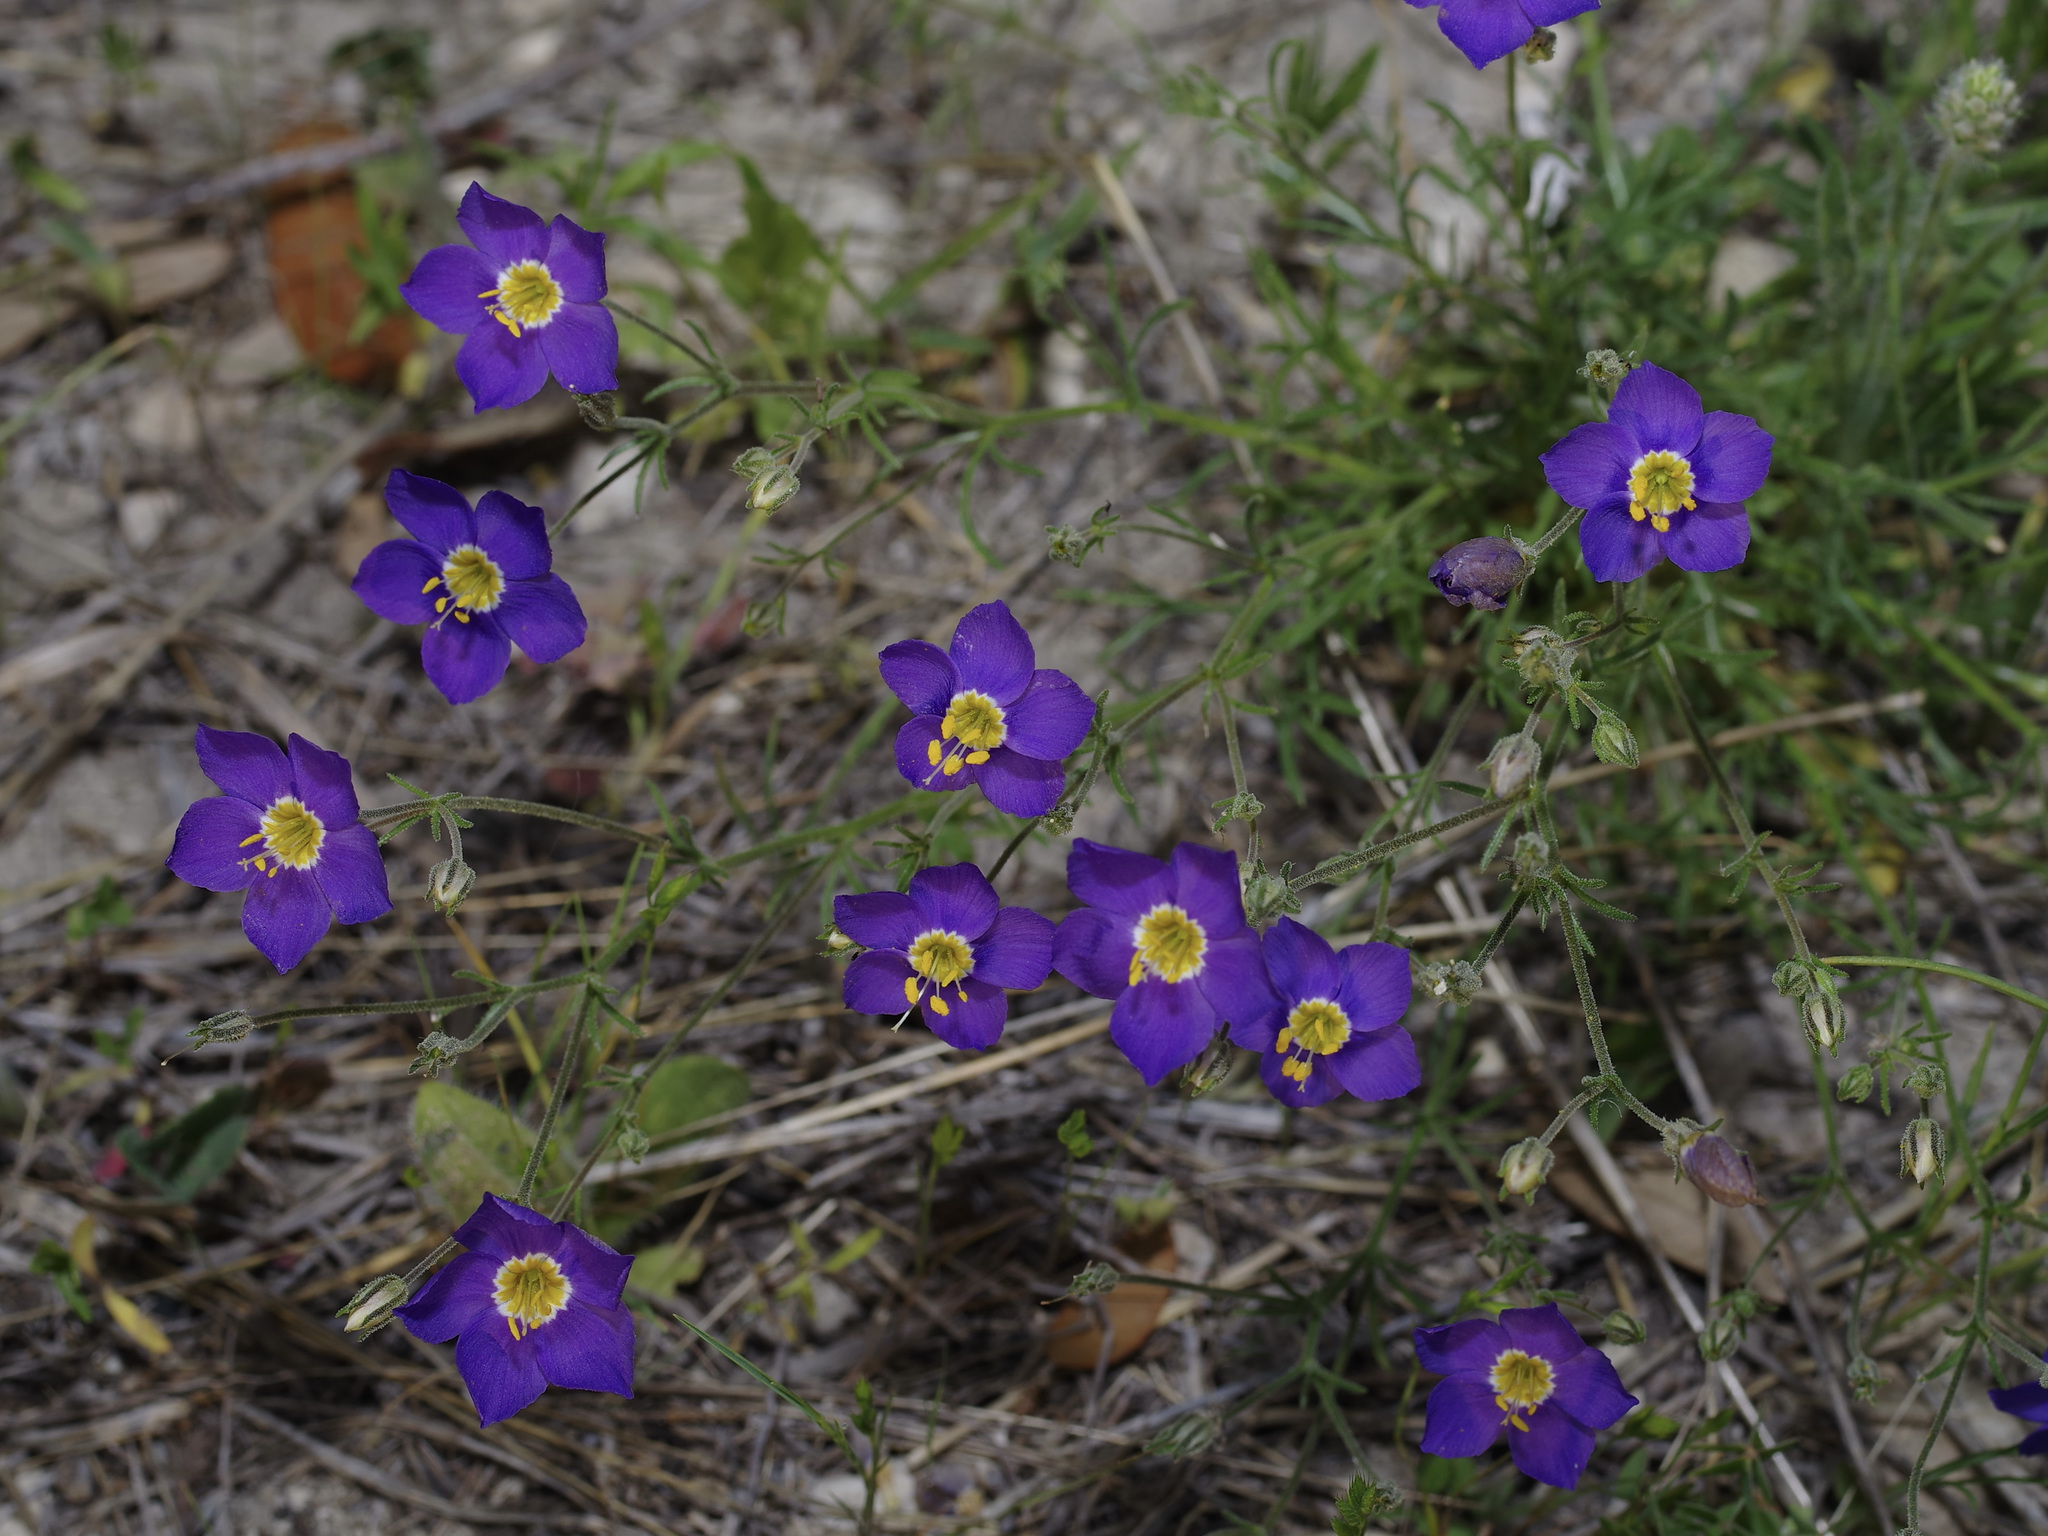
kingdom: Plantae
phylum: Tracheophyta
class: Magnoliopsida
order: Ericales
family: Polemoniaceae
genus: Giliastrum
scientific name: Giliastrum rigidulum
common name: Bluebowls
